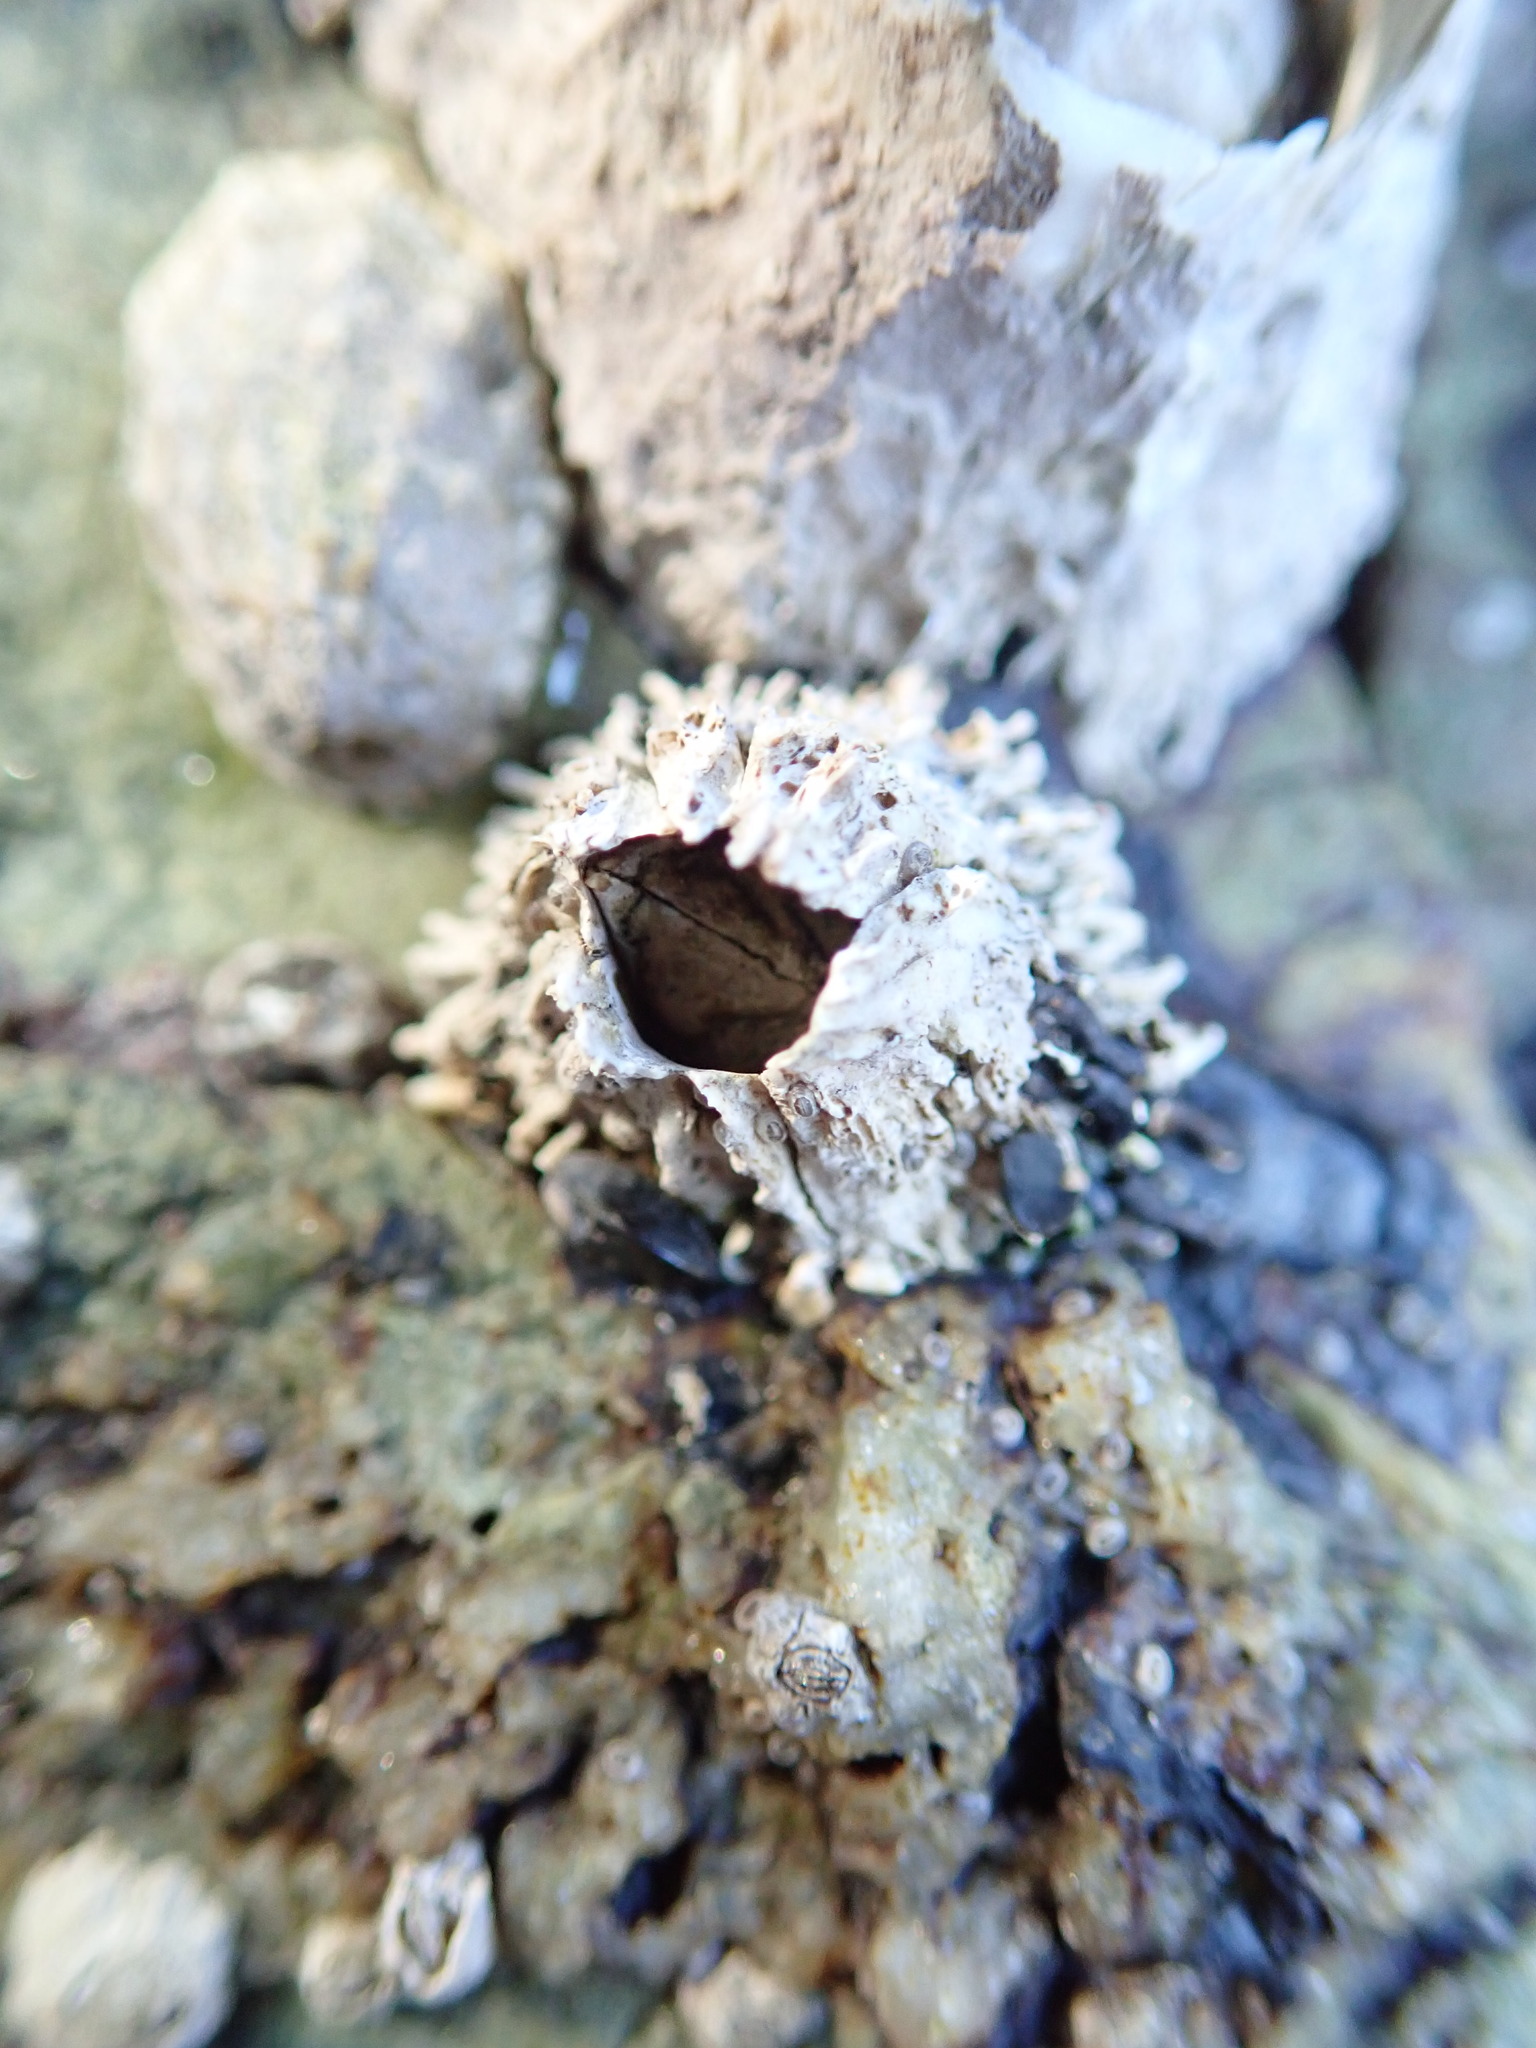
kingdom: Animalia
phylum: Arthropoda
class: Maxillopoda
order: Sessilia
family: Archaeobalanidae
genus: Semibalanus
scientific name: Semibalanus cariosus
